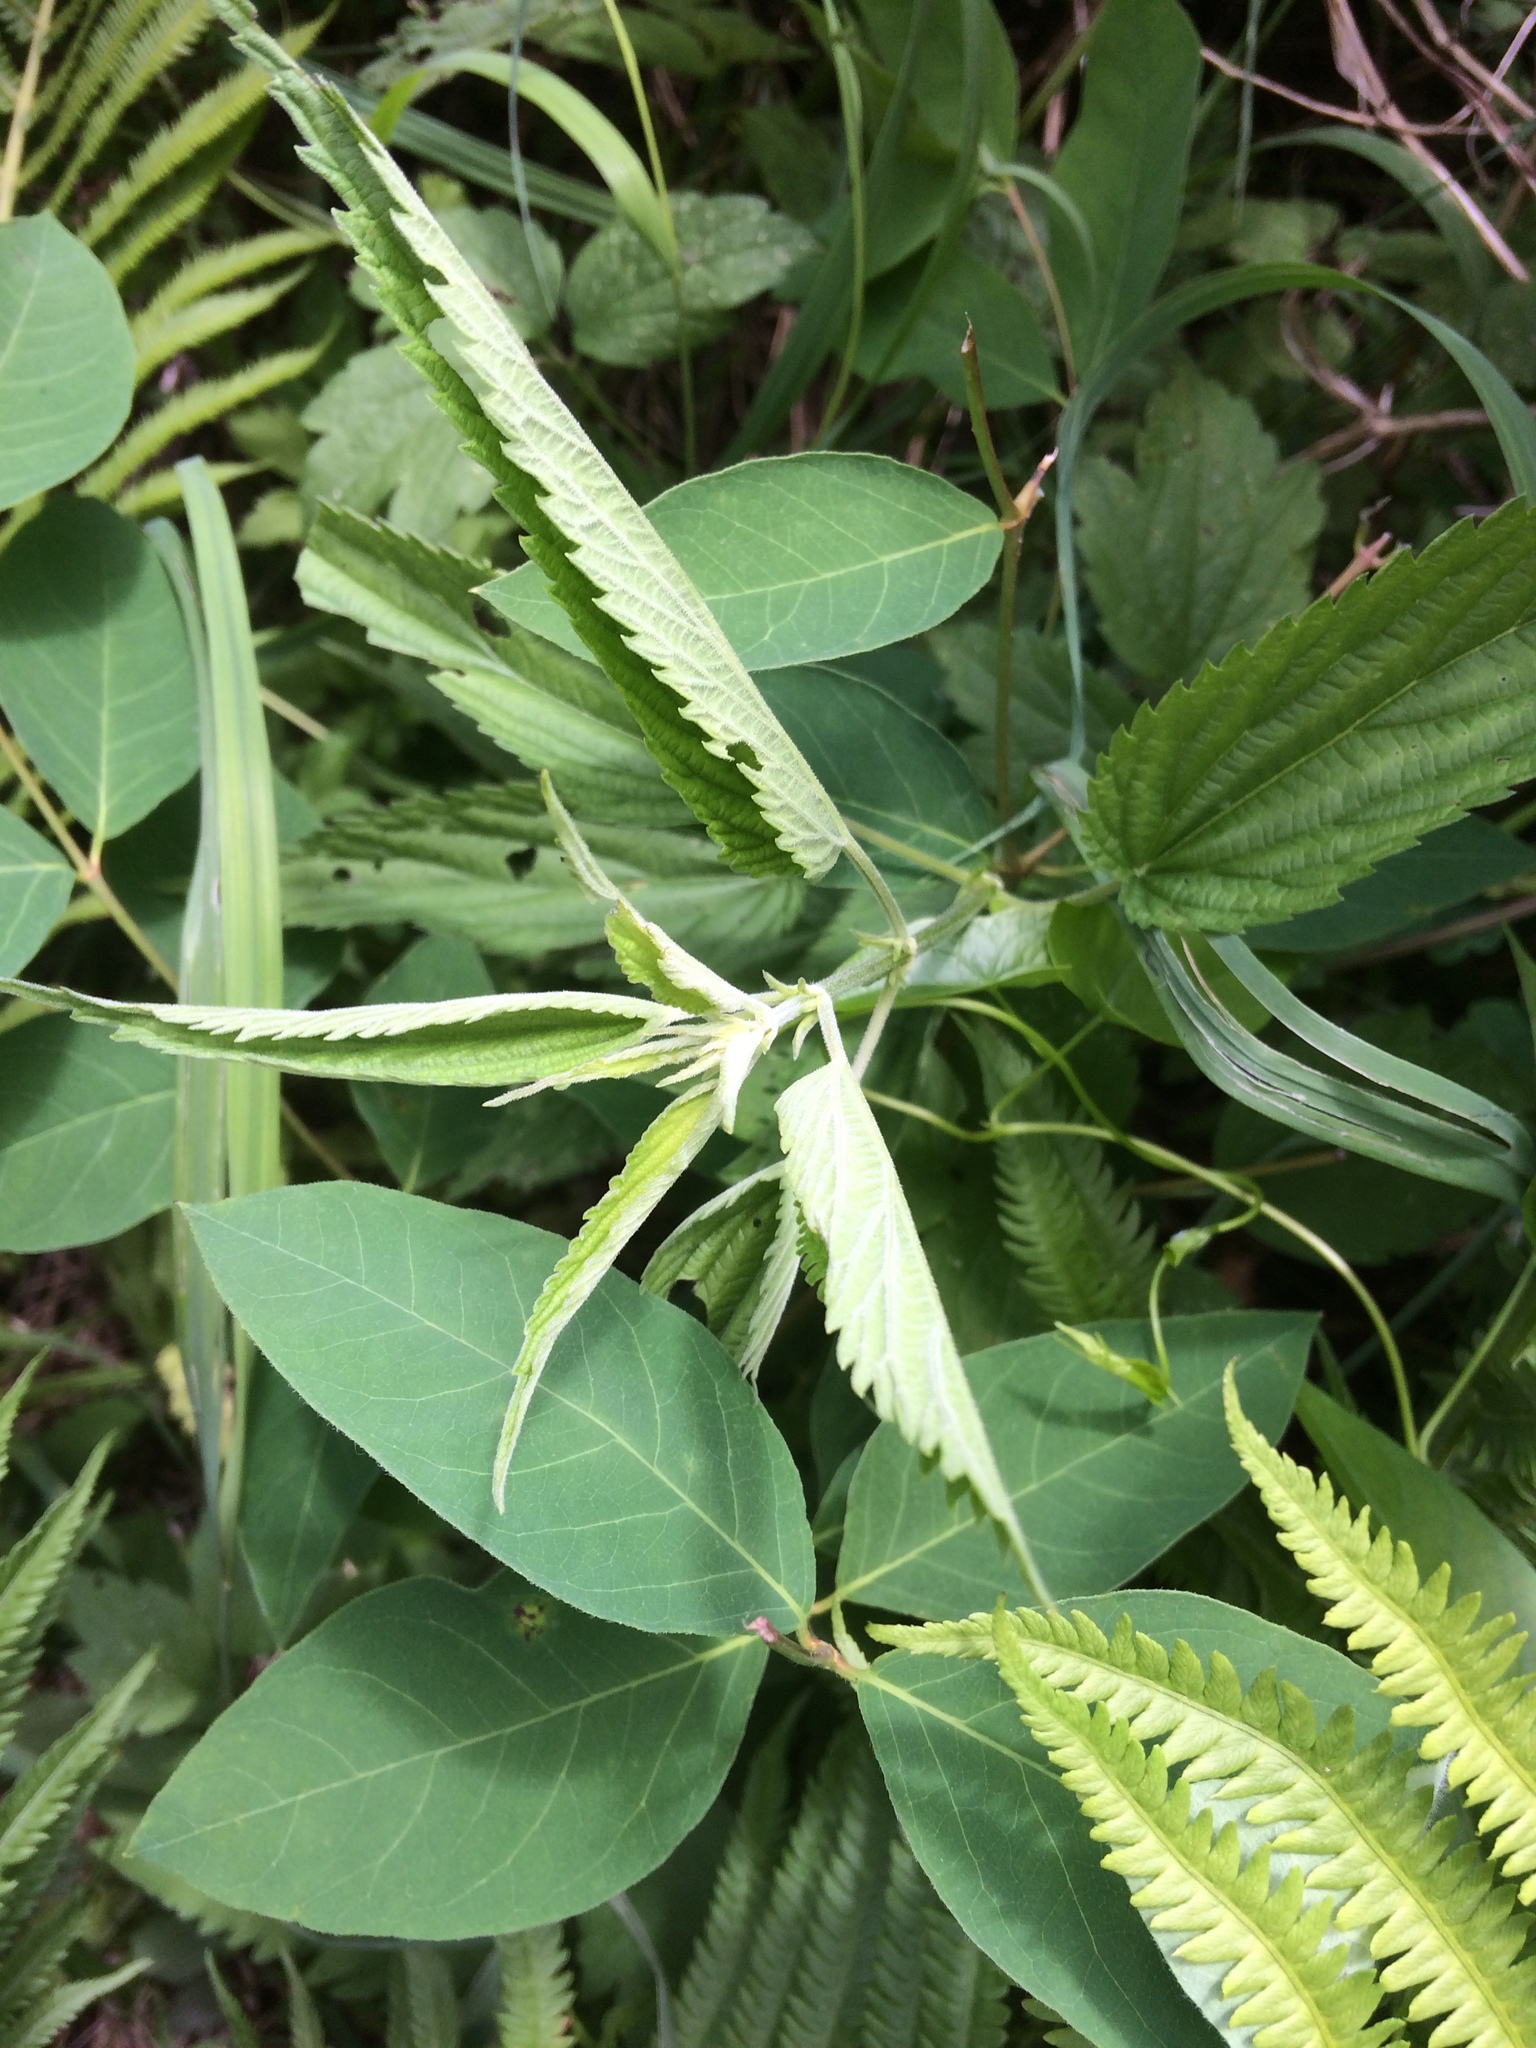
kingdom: Plantae
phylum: Tracheophyta
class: Magnoliopsida
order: Rosales
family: Urticaceae
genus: Urtica
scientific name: Urtica dioica
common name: Common nettle
